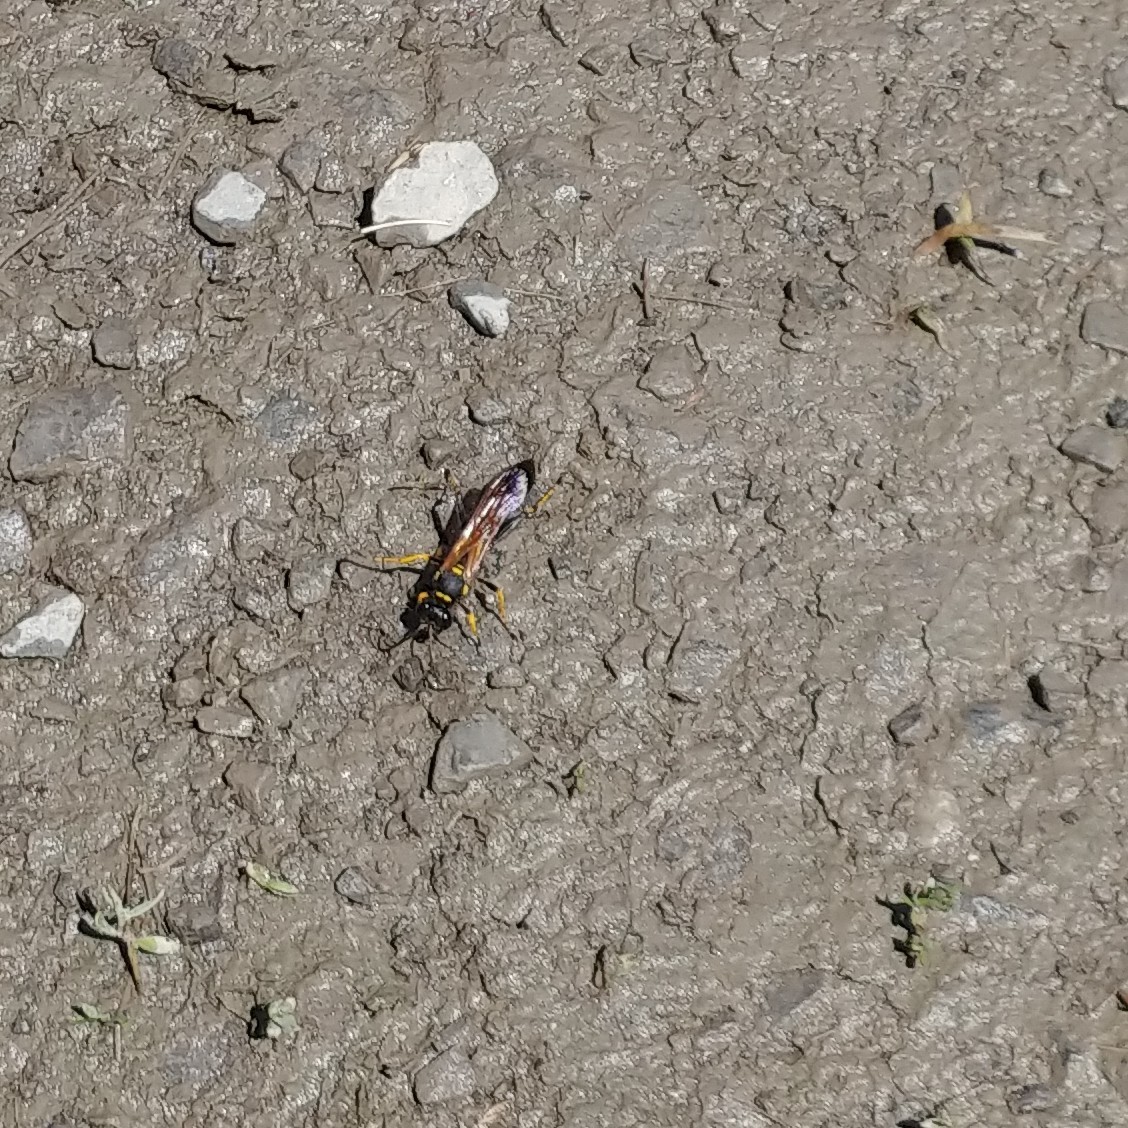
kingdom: Animalia
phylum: Arthropoda
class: Insecta
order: Hymenoptera
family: Sphecidae
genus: Sceliphron
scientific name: Sceliphron caementarium
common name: Mud dauber
